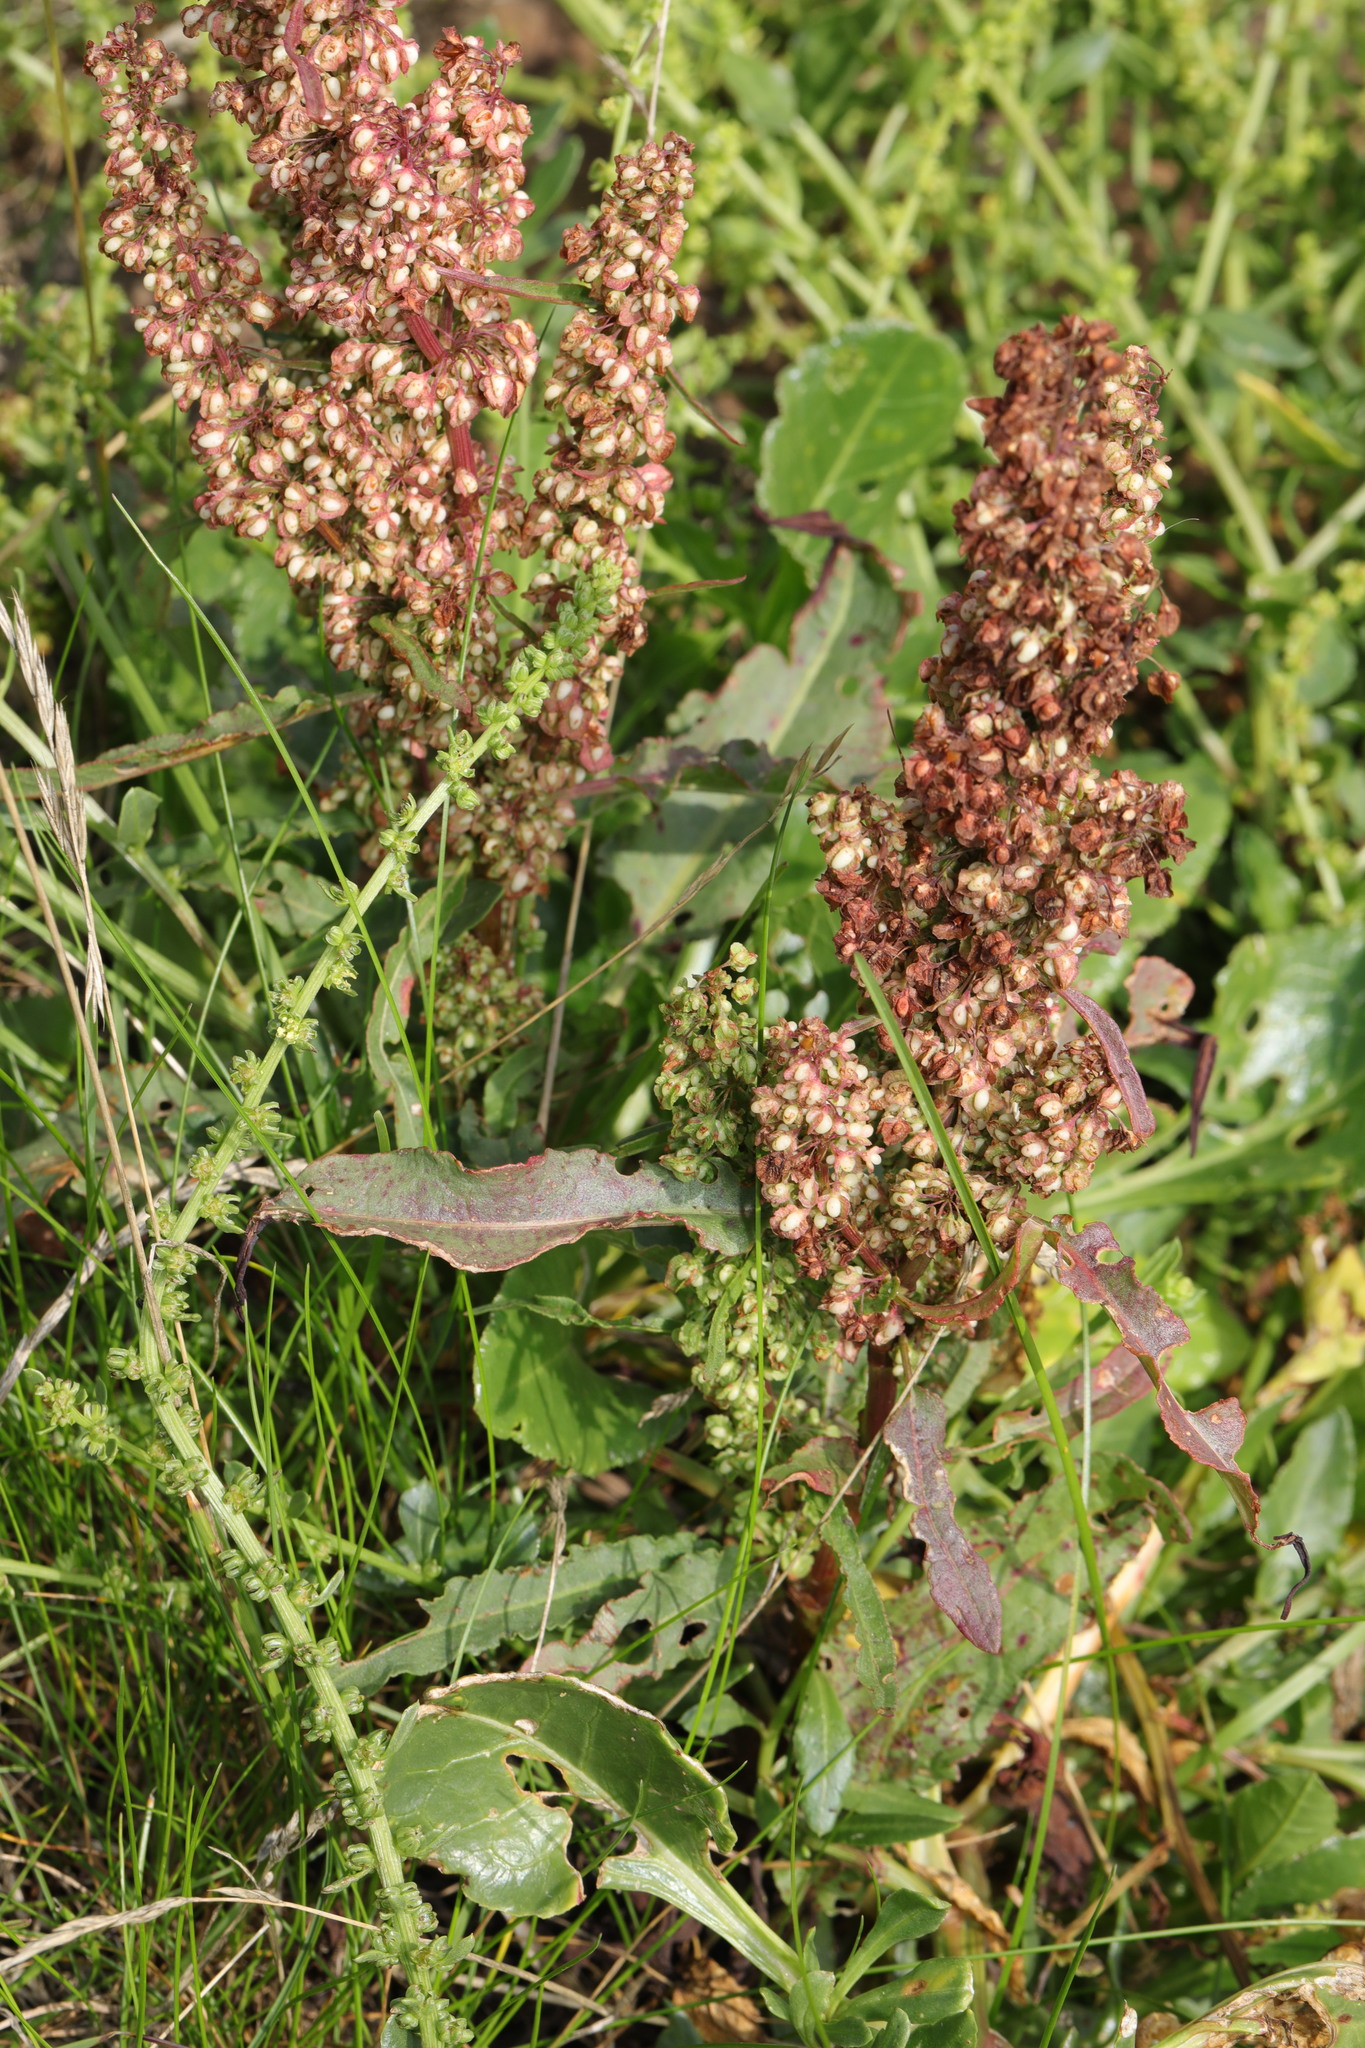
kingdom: Plantae
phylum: Tracheophyta
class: Magnoliopsida
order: Caryophyllales
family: Polygonaceae
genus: Rumex
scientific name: Rumex crispus
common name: Curled dock
